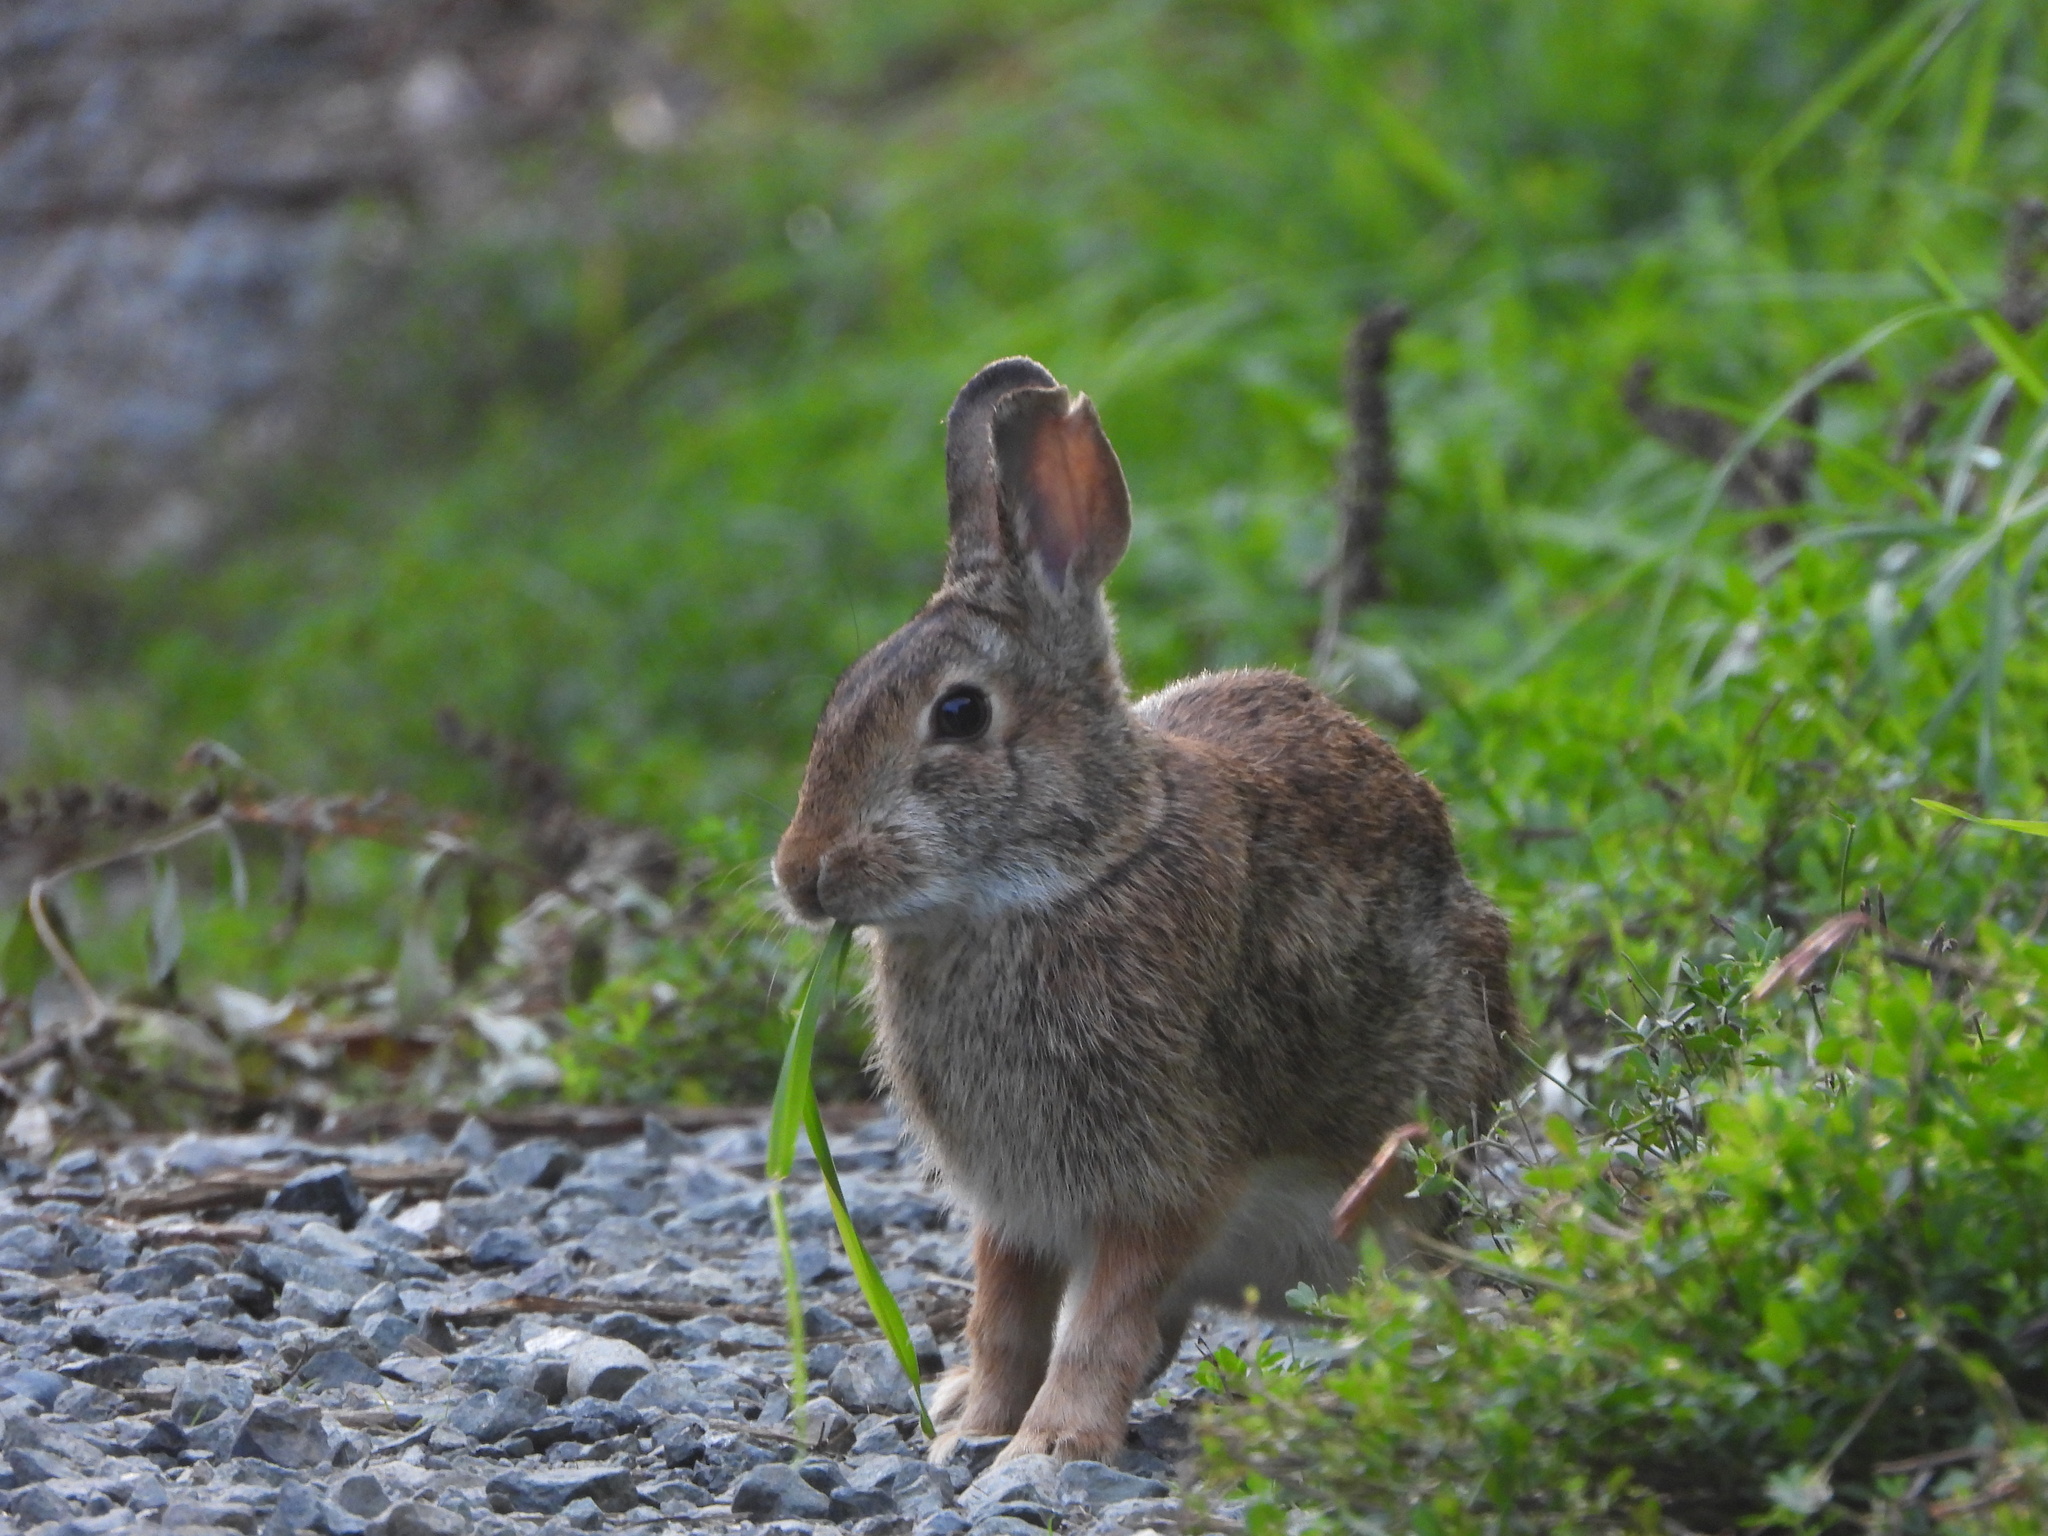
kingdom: Animalia
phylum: Chordata
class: Mammalia
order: Lagomorpha
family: Leporidae
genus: Sylvilagus
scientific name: Sylvilagus floridanus
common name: Eastern cottontail
